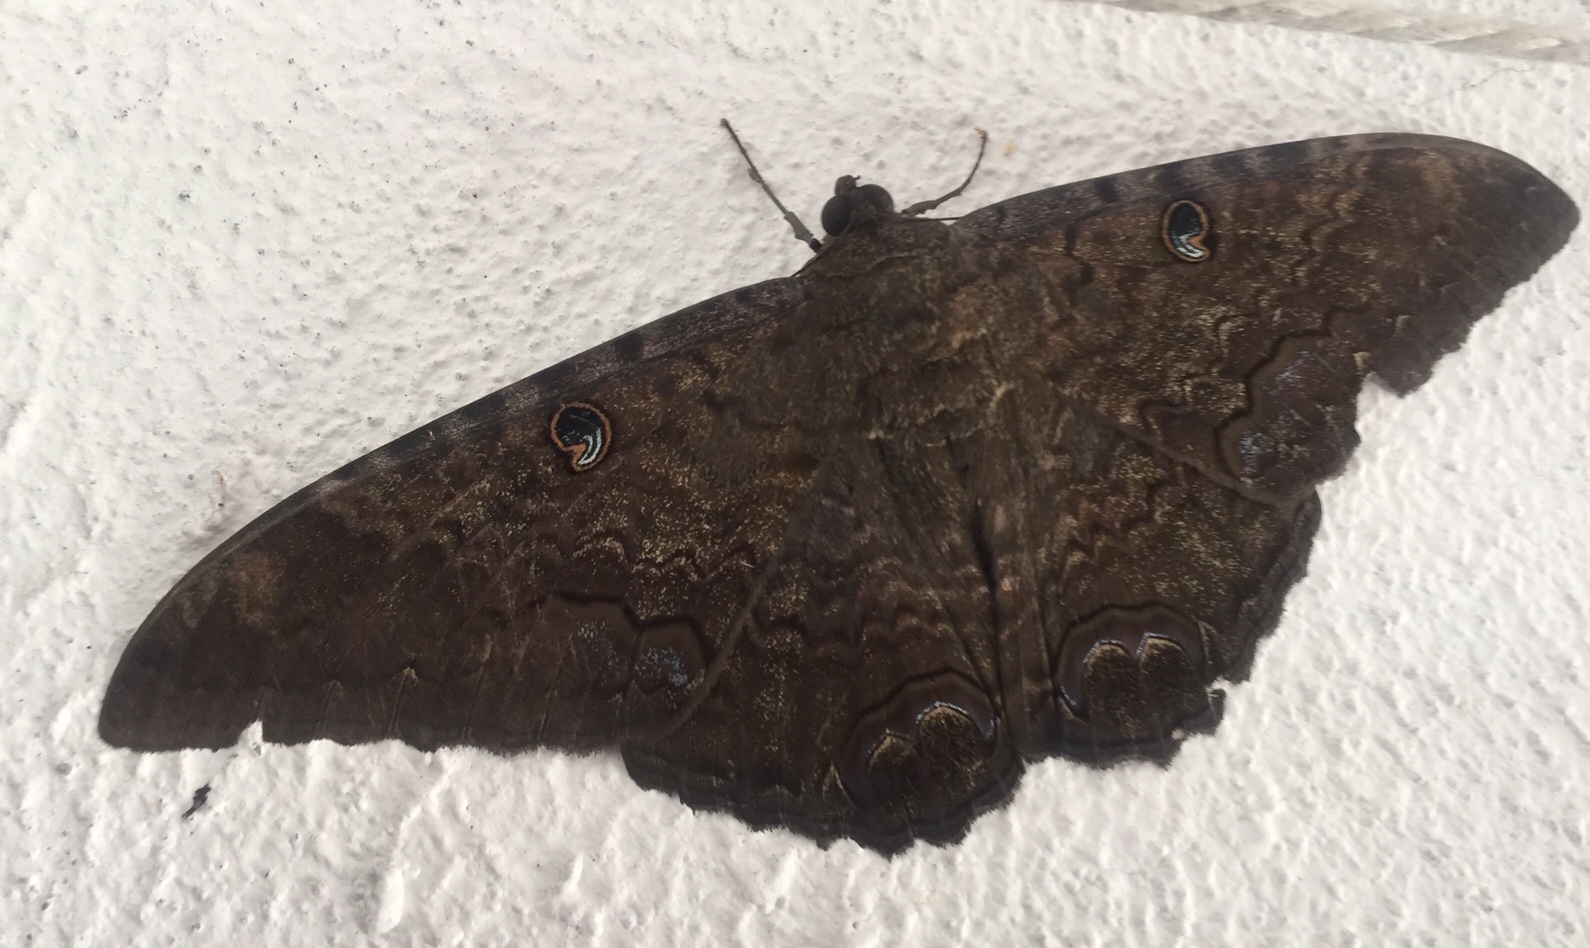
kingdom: Animalia
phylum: Arthropoda
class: Insecta
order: Lepidoptera
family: Erebidae
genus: Ascalapha
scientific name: Ascalapha odorata
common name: Black witch
